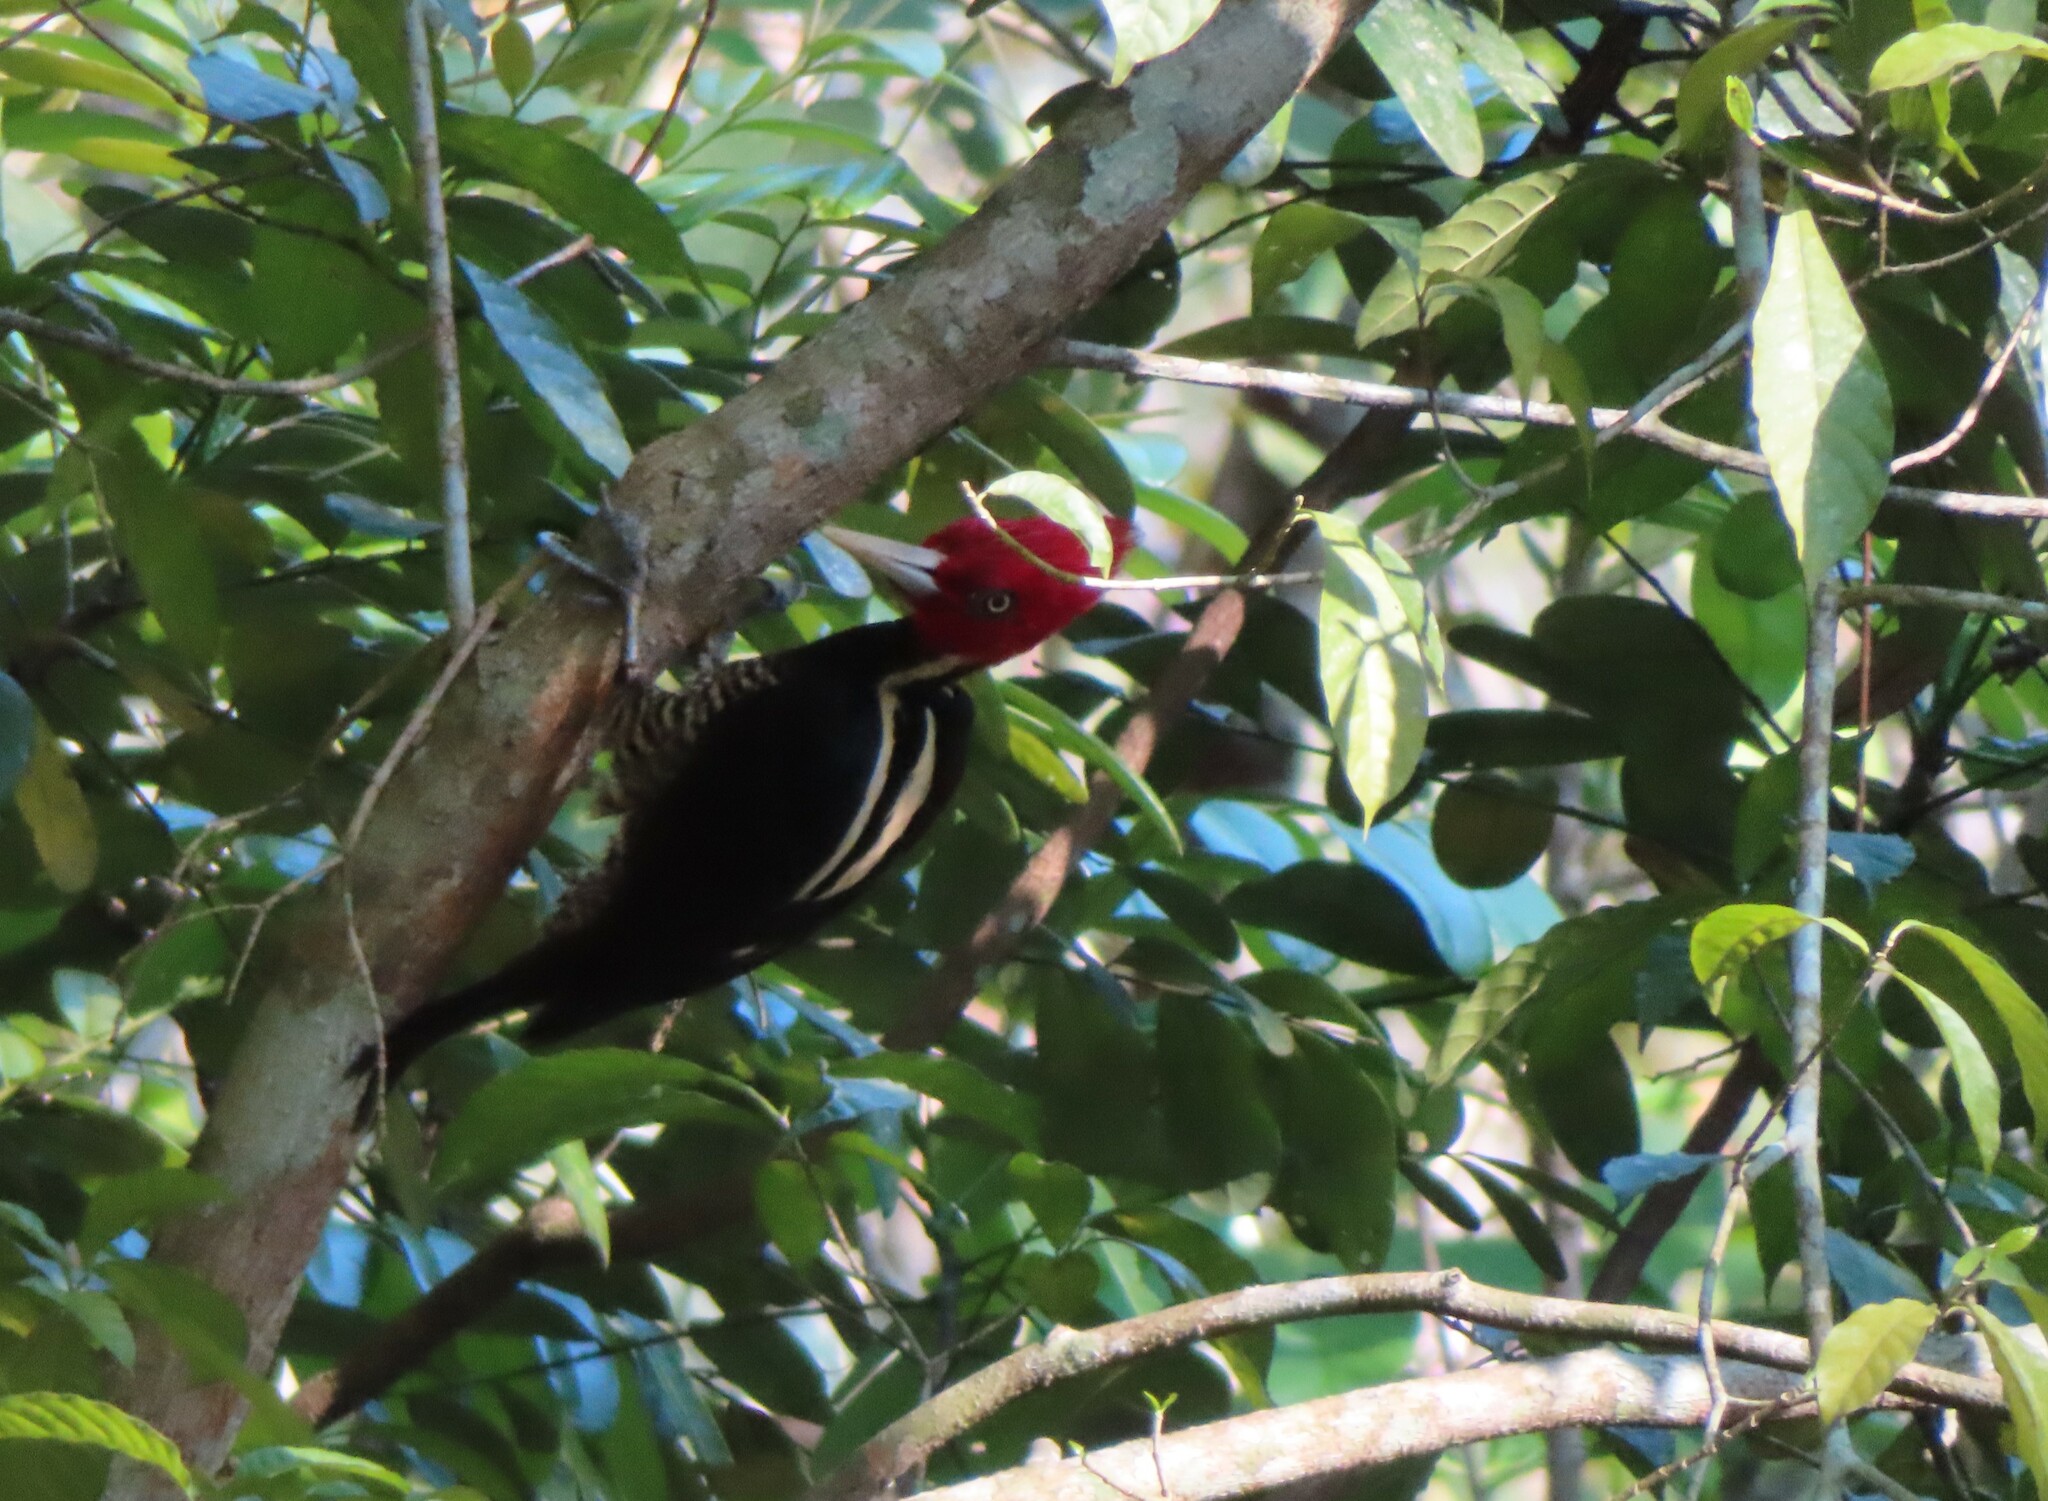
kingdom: Animalia
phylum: Chordata
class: Aves
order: Piciformes
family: Picidae
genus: Campephilus
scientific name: Campephilus guatemalensis
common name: Pale-billed woodpecker
